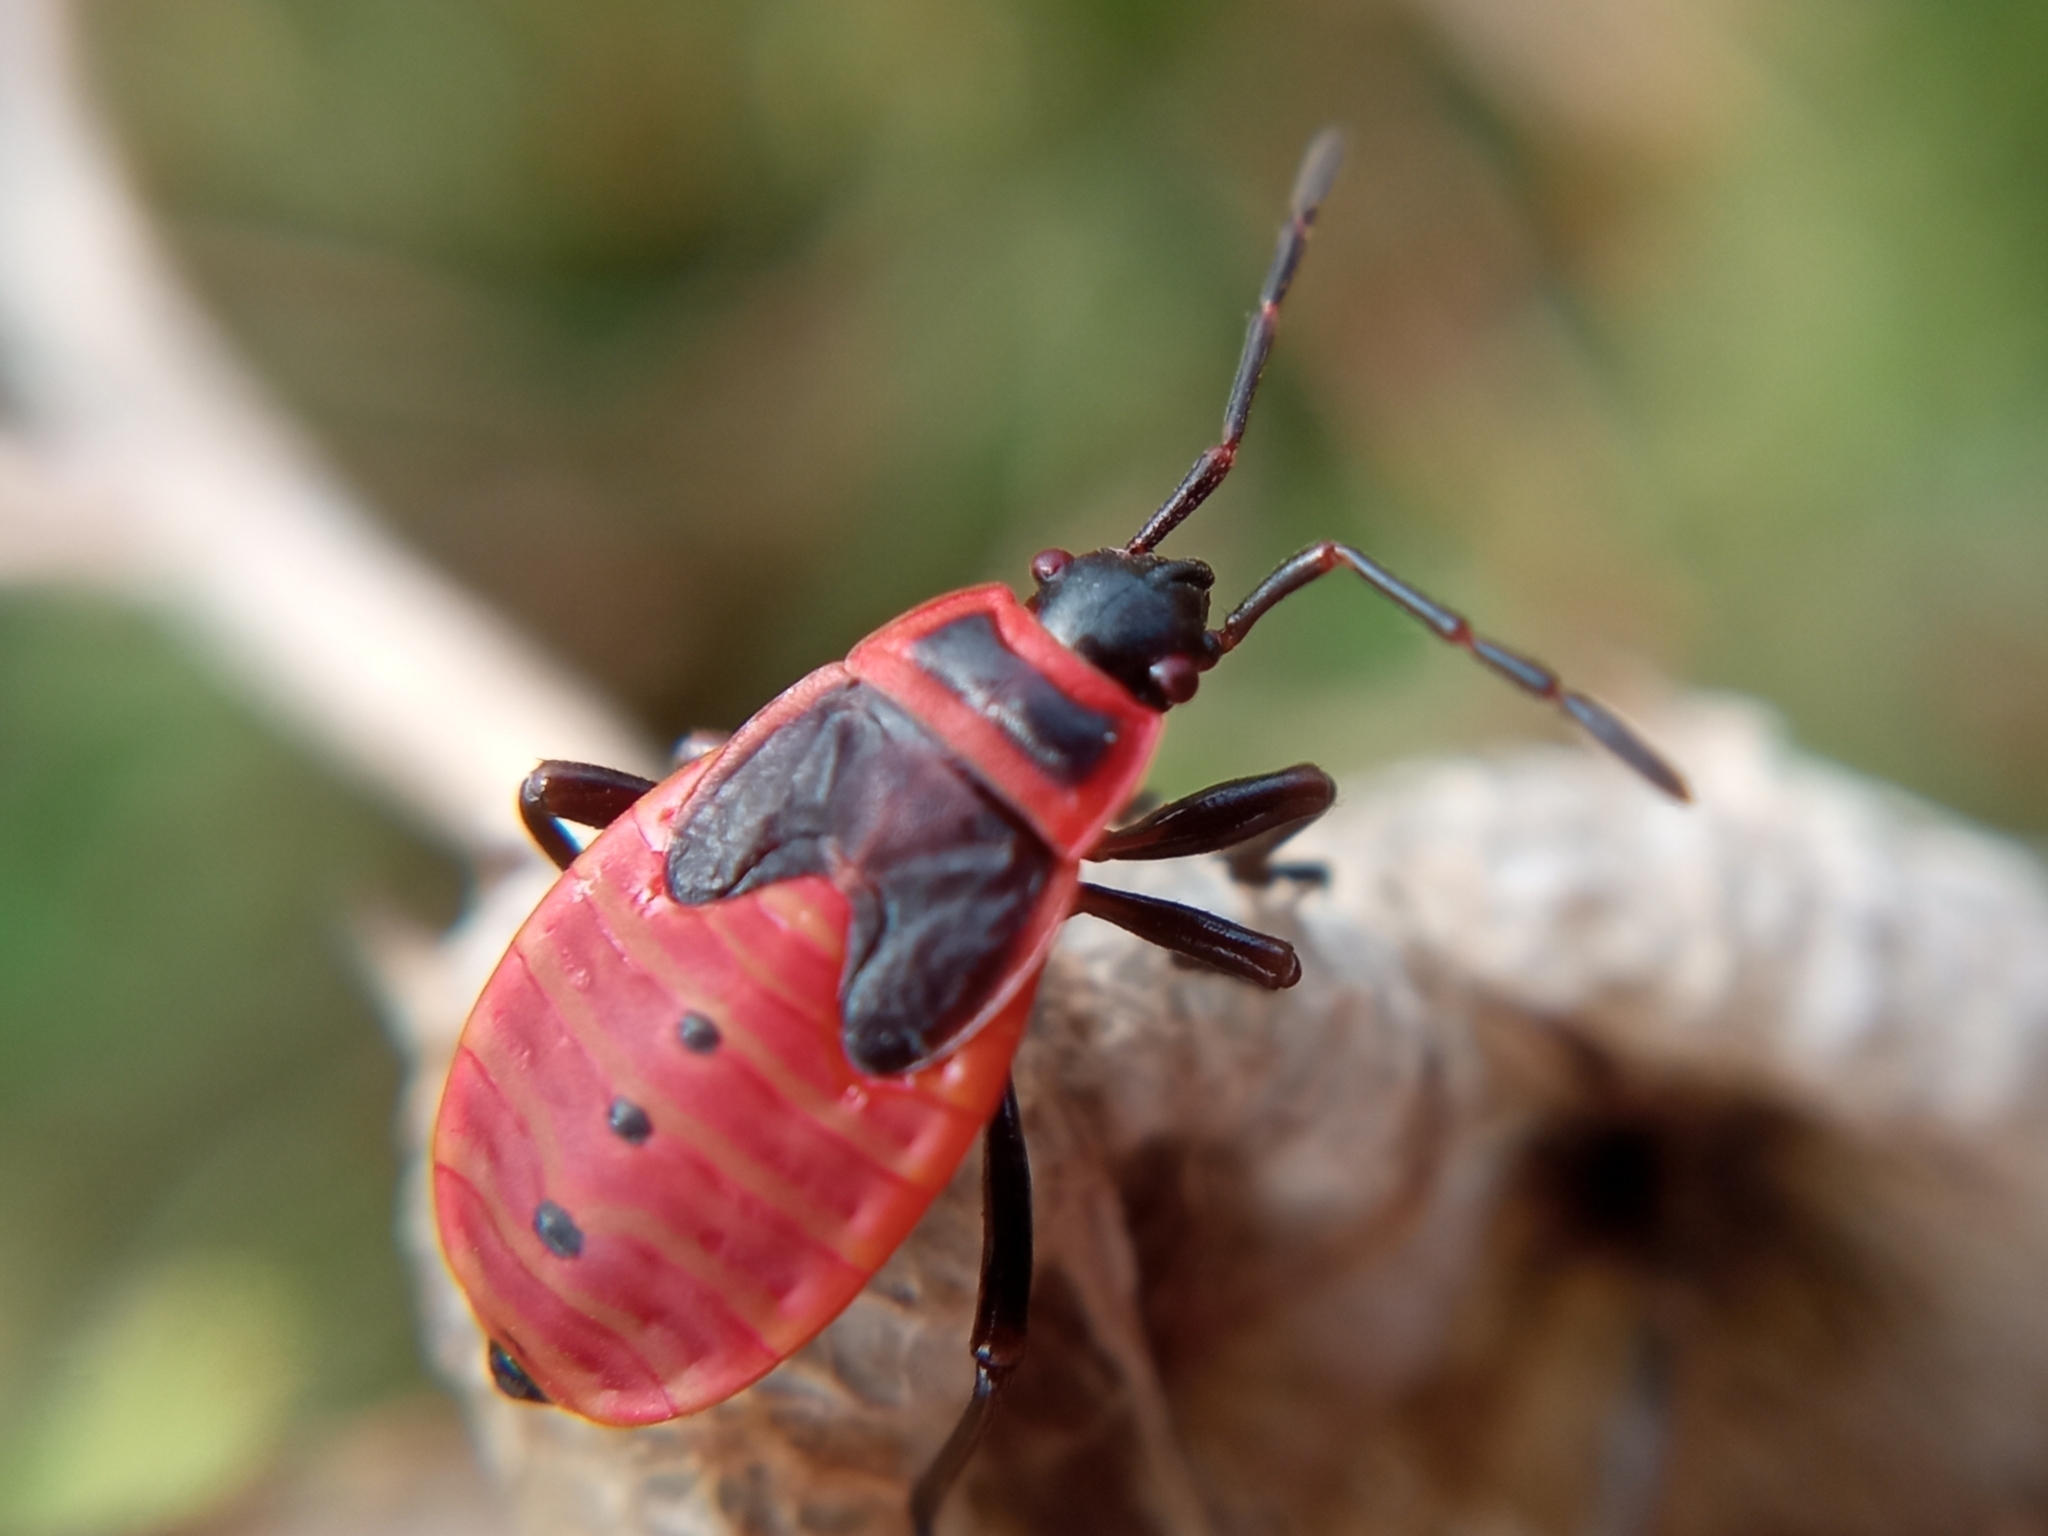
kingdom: Animalia
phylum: Arthropoda
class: Insecta
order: Hemiptera
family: Pyrrhocoridae
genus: Pyrrhocoris
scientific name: Pyrrhocoris apterus
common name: Firebug
